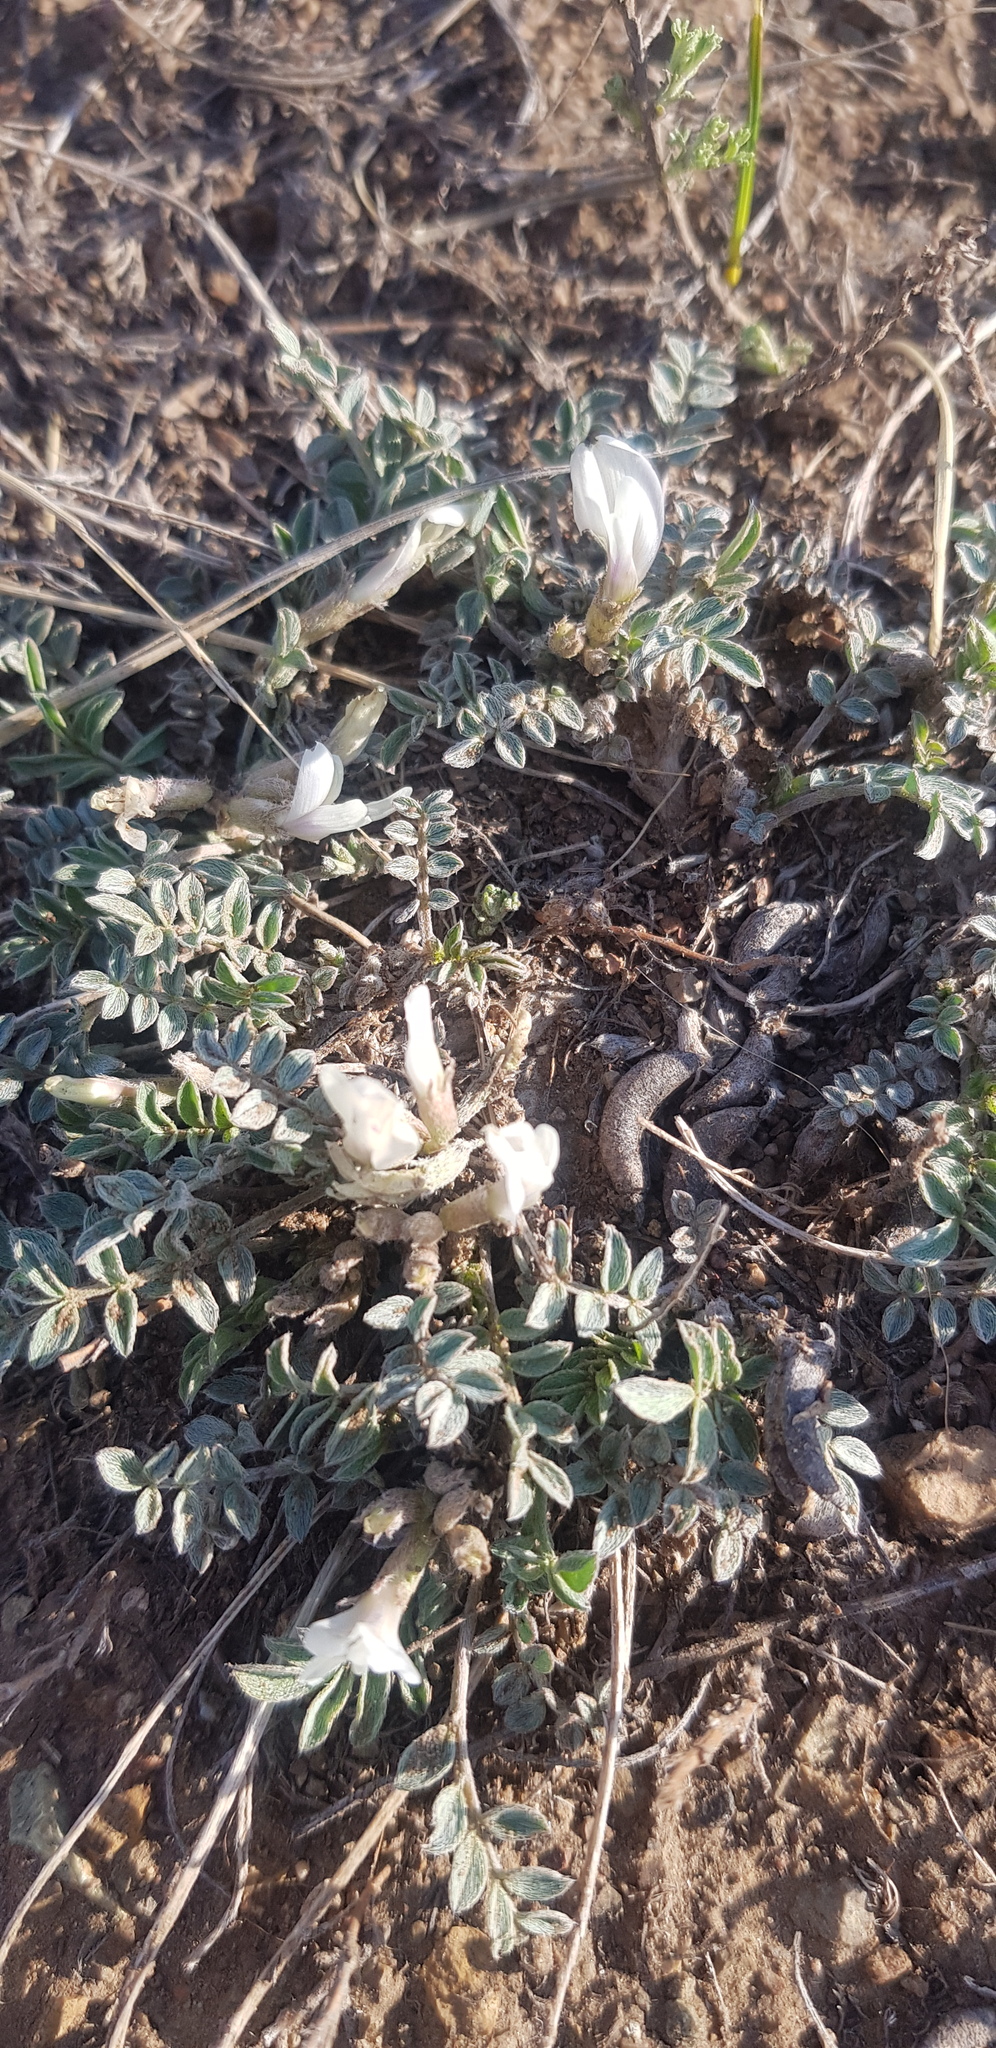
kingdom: Plantae
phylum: Tracheophyta
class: Magnoliopsida
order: Fabales
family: Fabaceae
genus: Astragalus
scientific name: Astragalus brevifolius
